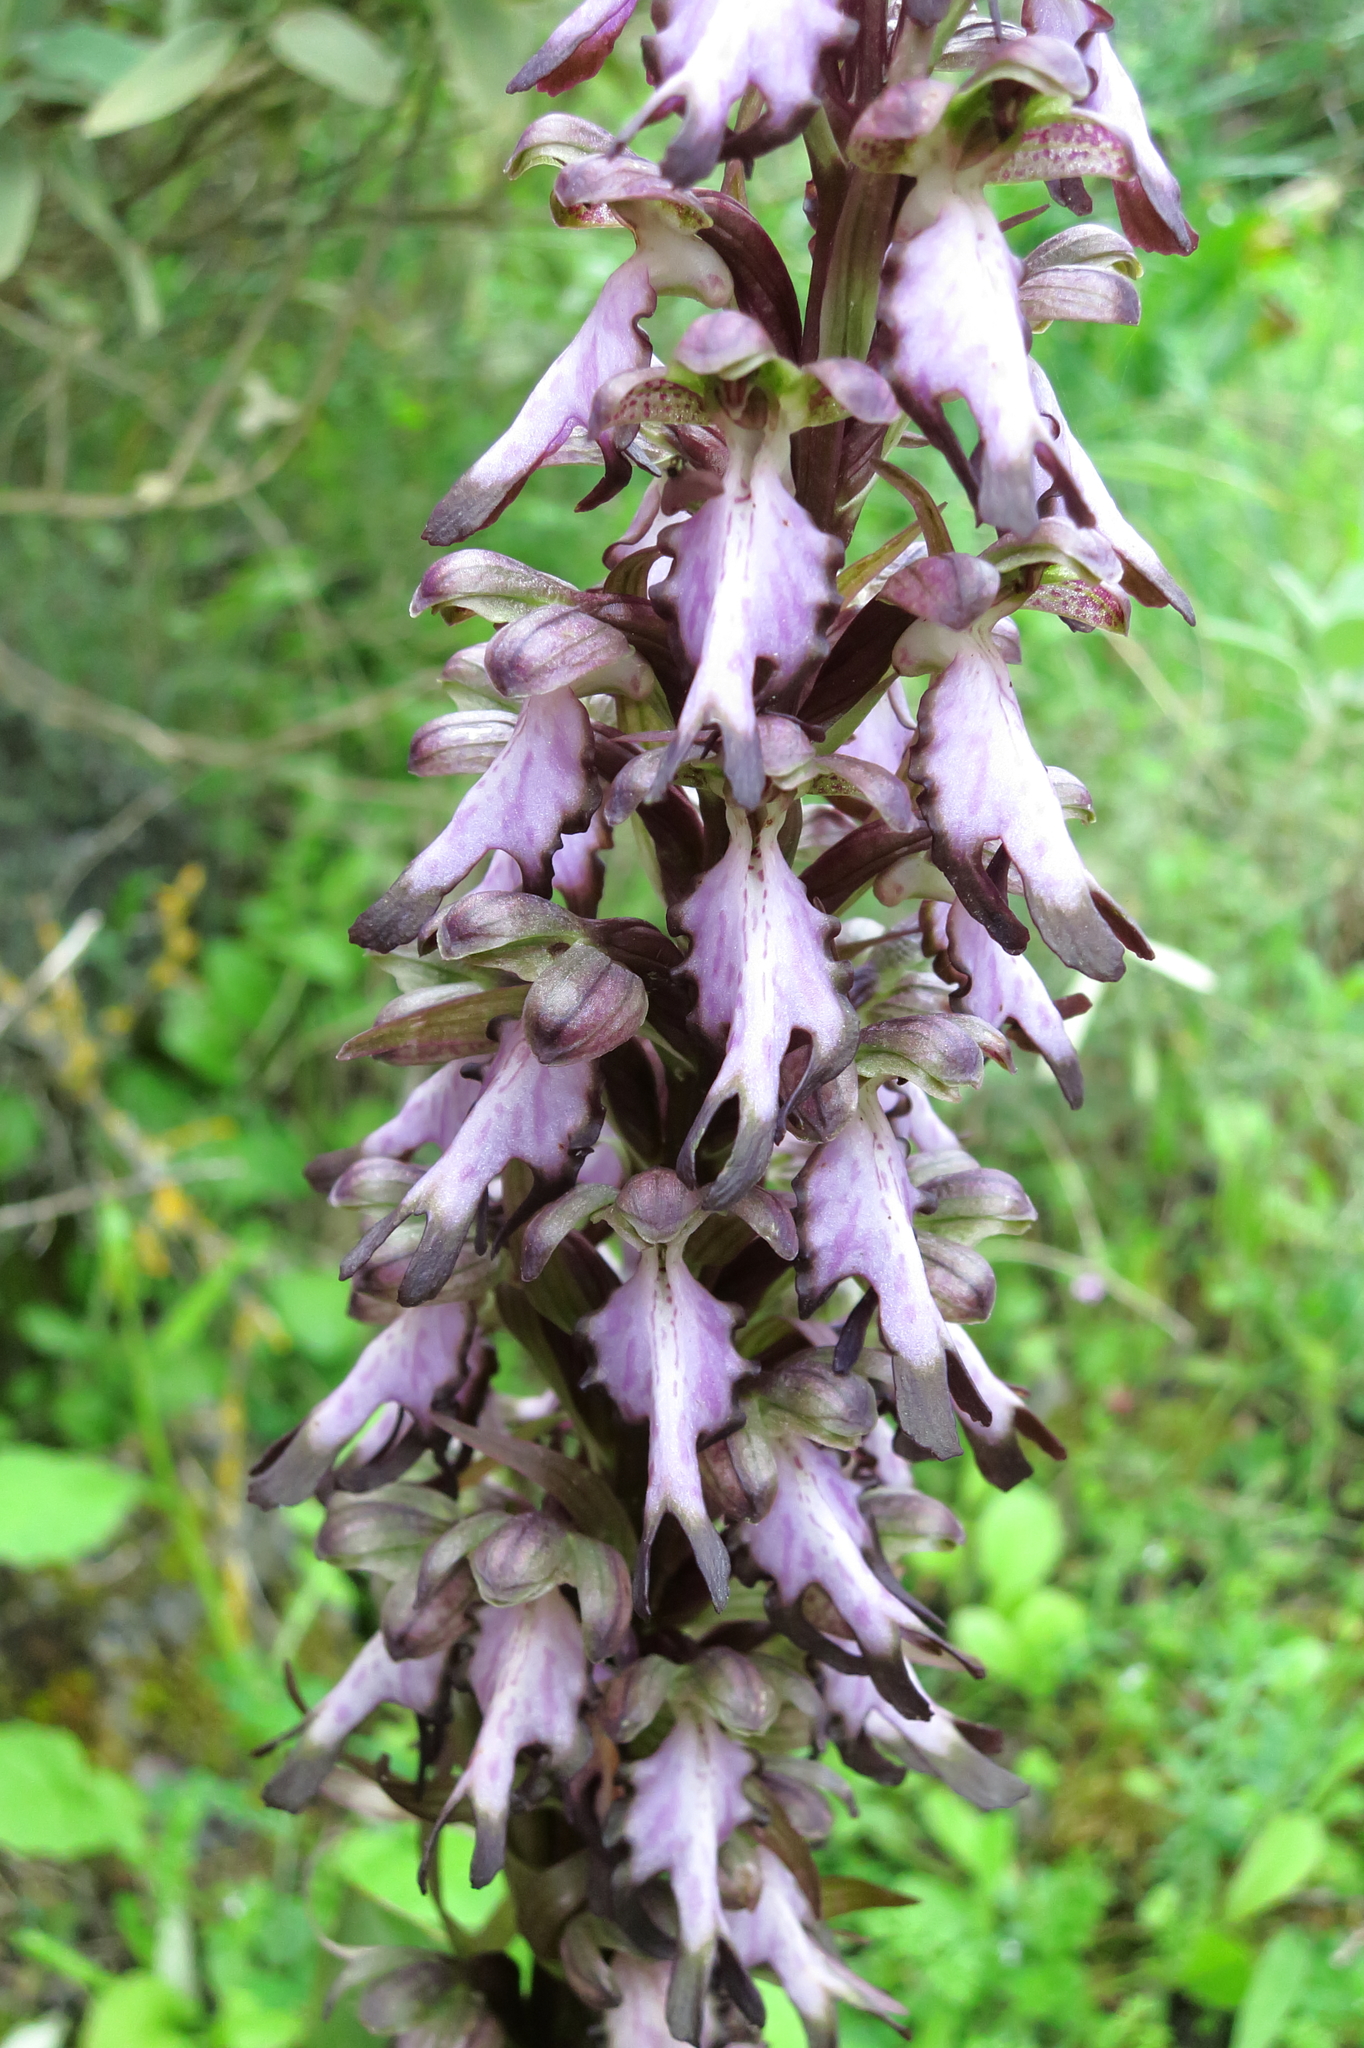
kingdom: Plantae
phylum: Tracheophyta
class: Liliopsida
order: Asparagales
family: Orchidaceae
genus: Himantoglossum
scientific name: Himantoglossum robertianum
